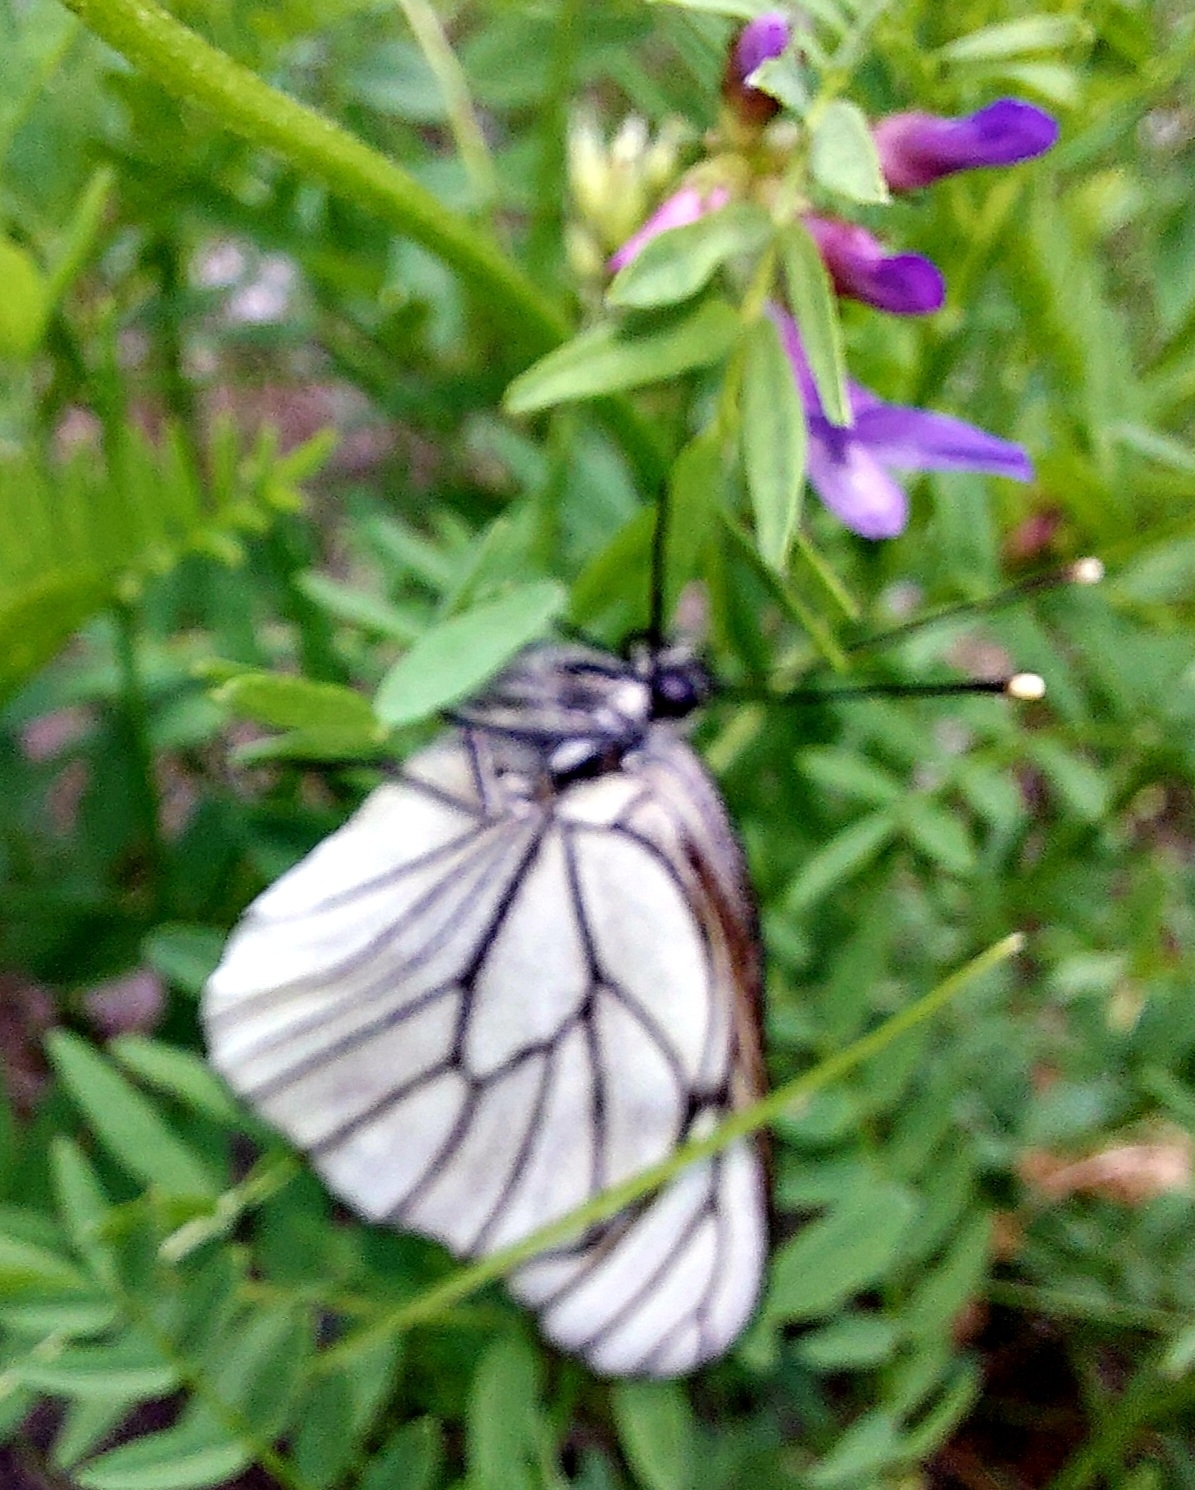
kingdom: Animalia
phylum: Arthropoda
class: Insecta
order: Lepidoptera
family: Pieridae
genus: Aporia
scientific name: Aporia crataegi
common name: Black-veined white
